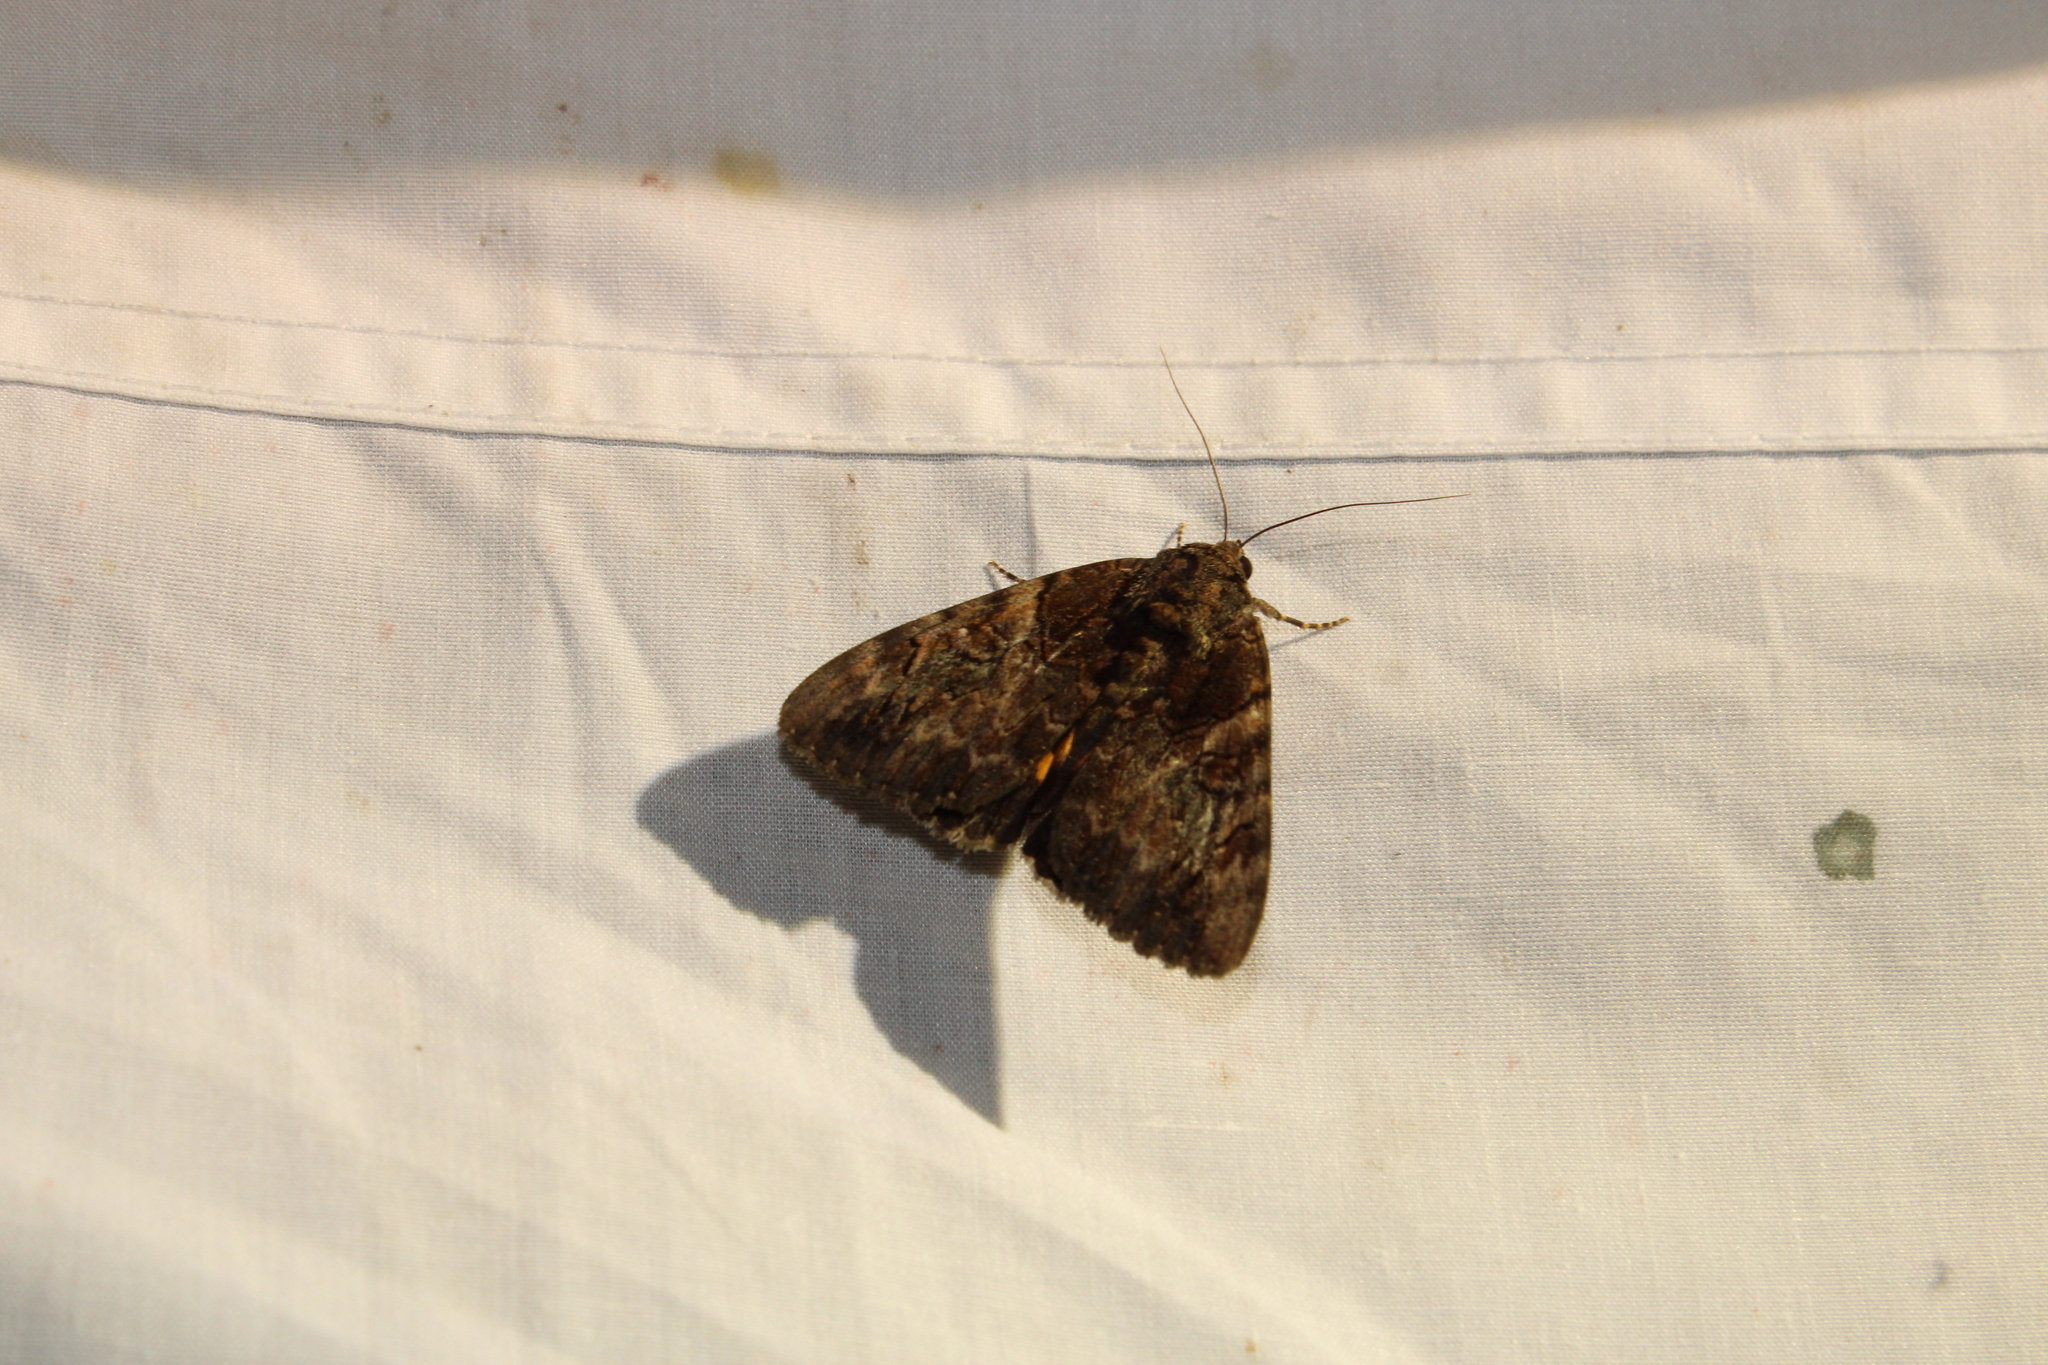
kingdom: Animalia
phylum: Arthropoda
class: Insecta
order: Lepidoptera
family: Erebidae
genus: Catocala
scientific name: Catocala muliercula
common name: The little wife underwing
